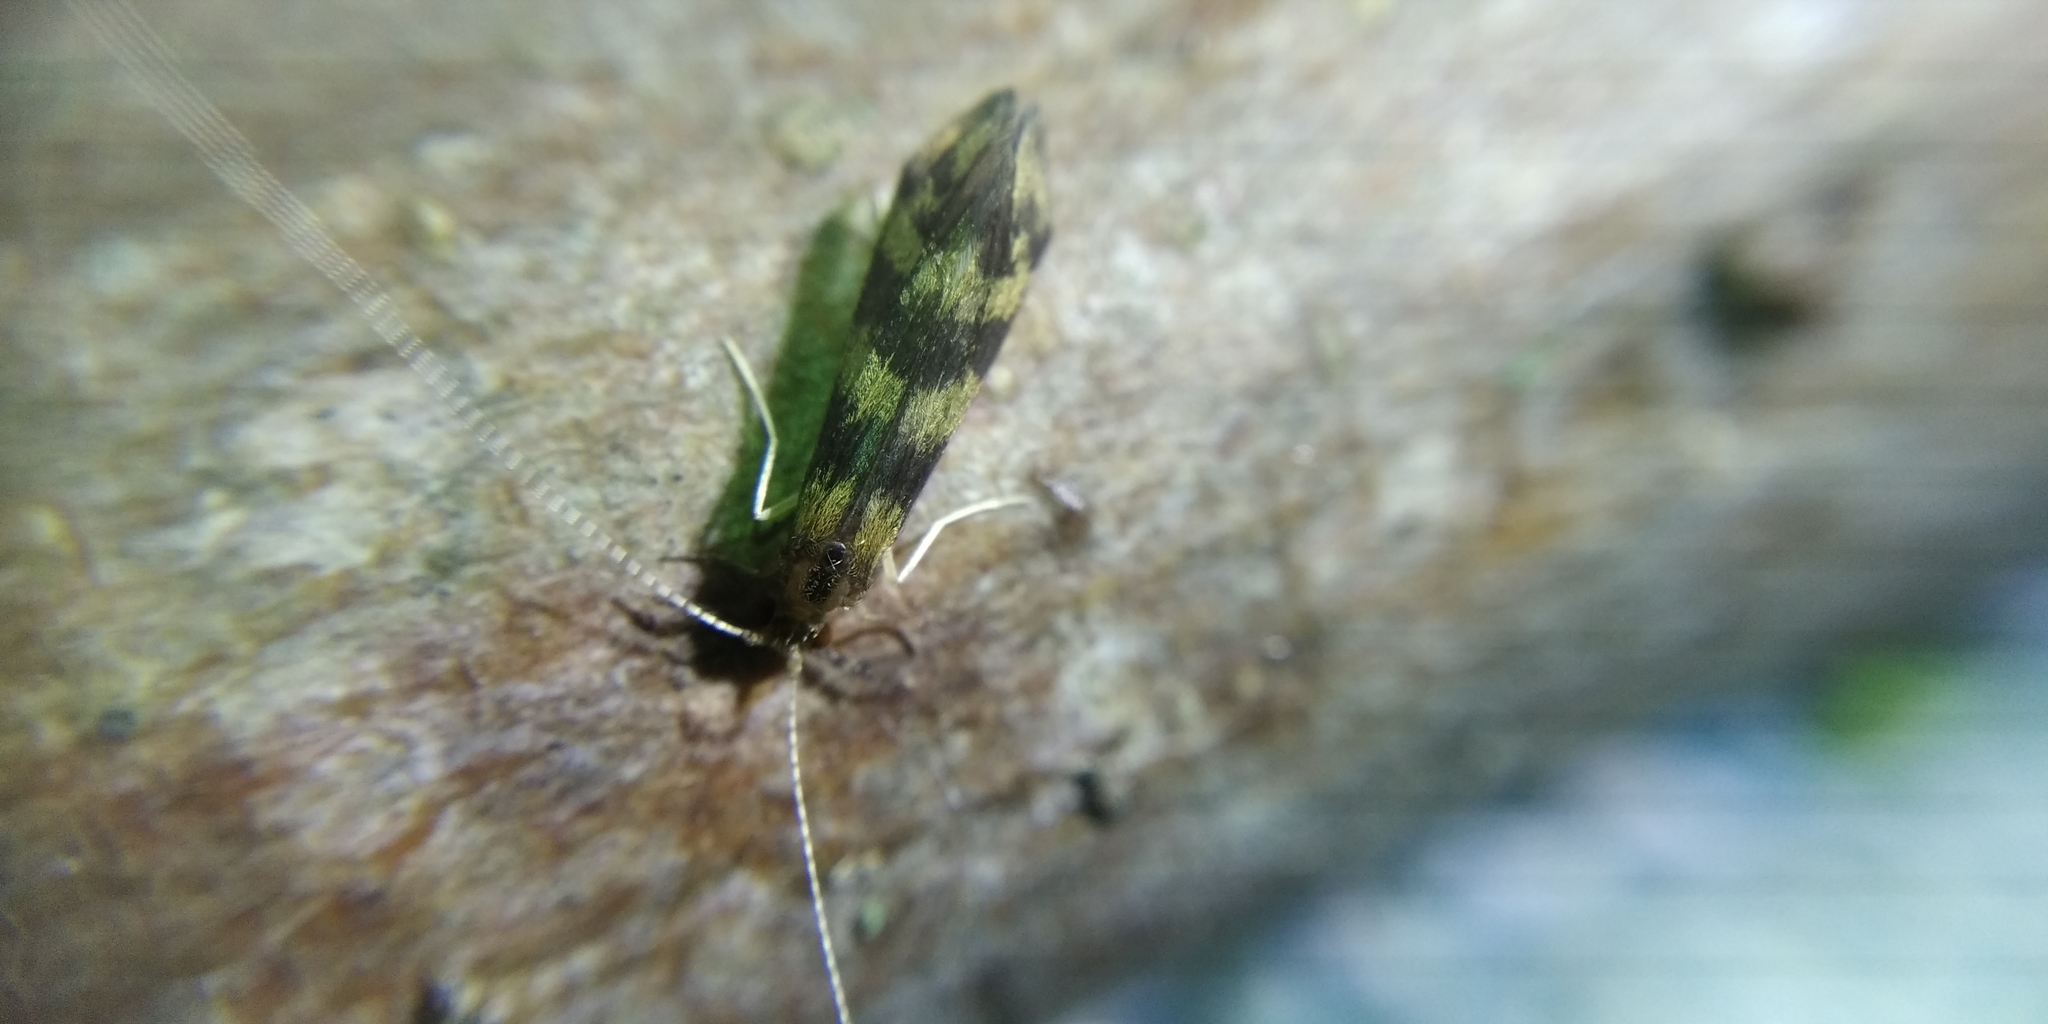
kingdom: Animalia
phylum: Arthropoda
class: Insecta
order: Trichoptera
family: Leptoceridae
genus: Mystacides
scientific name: Mystacides longicornis
